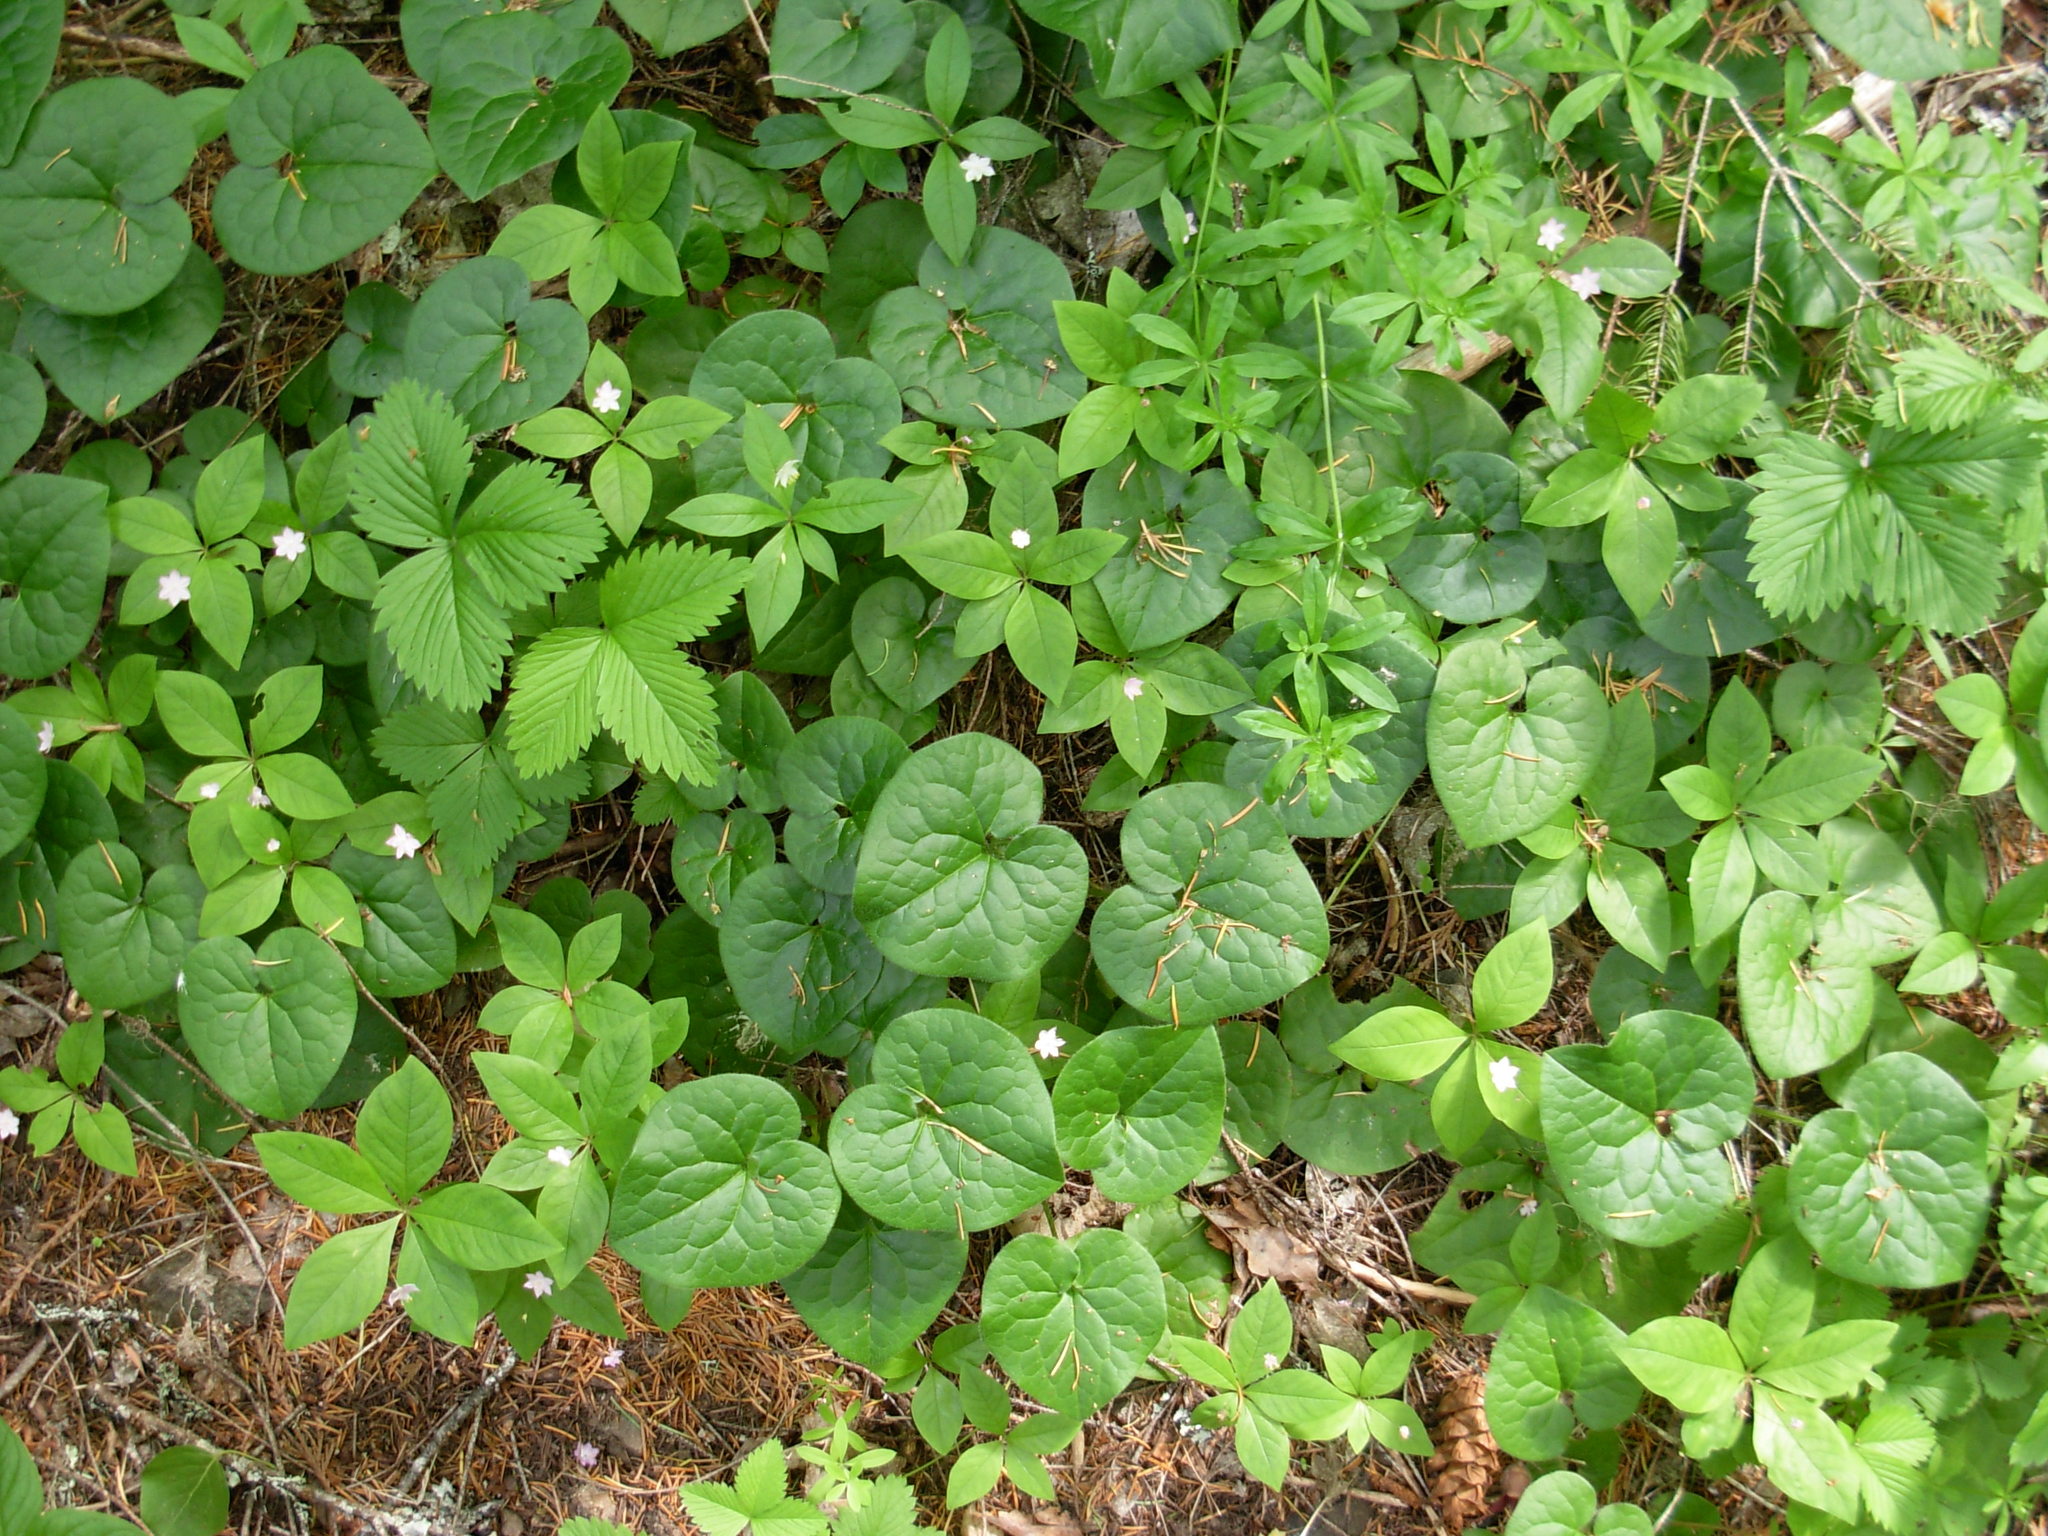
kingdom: Plantae
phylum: Tracheophyta
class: Magnoliopsida
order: Piperales
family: Aristolochiaceae
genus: Asarum
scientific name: Asarum caudatum
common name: Wild ginger
